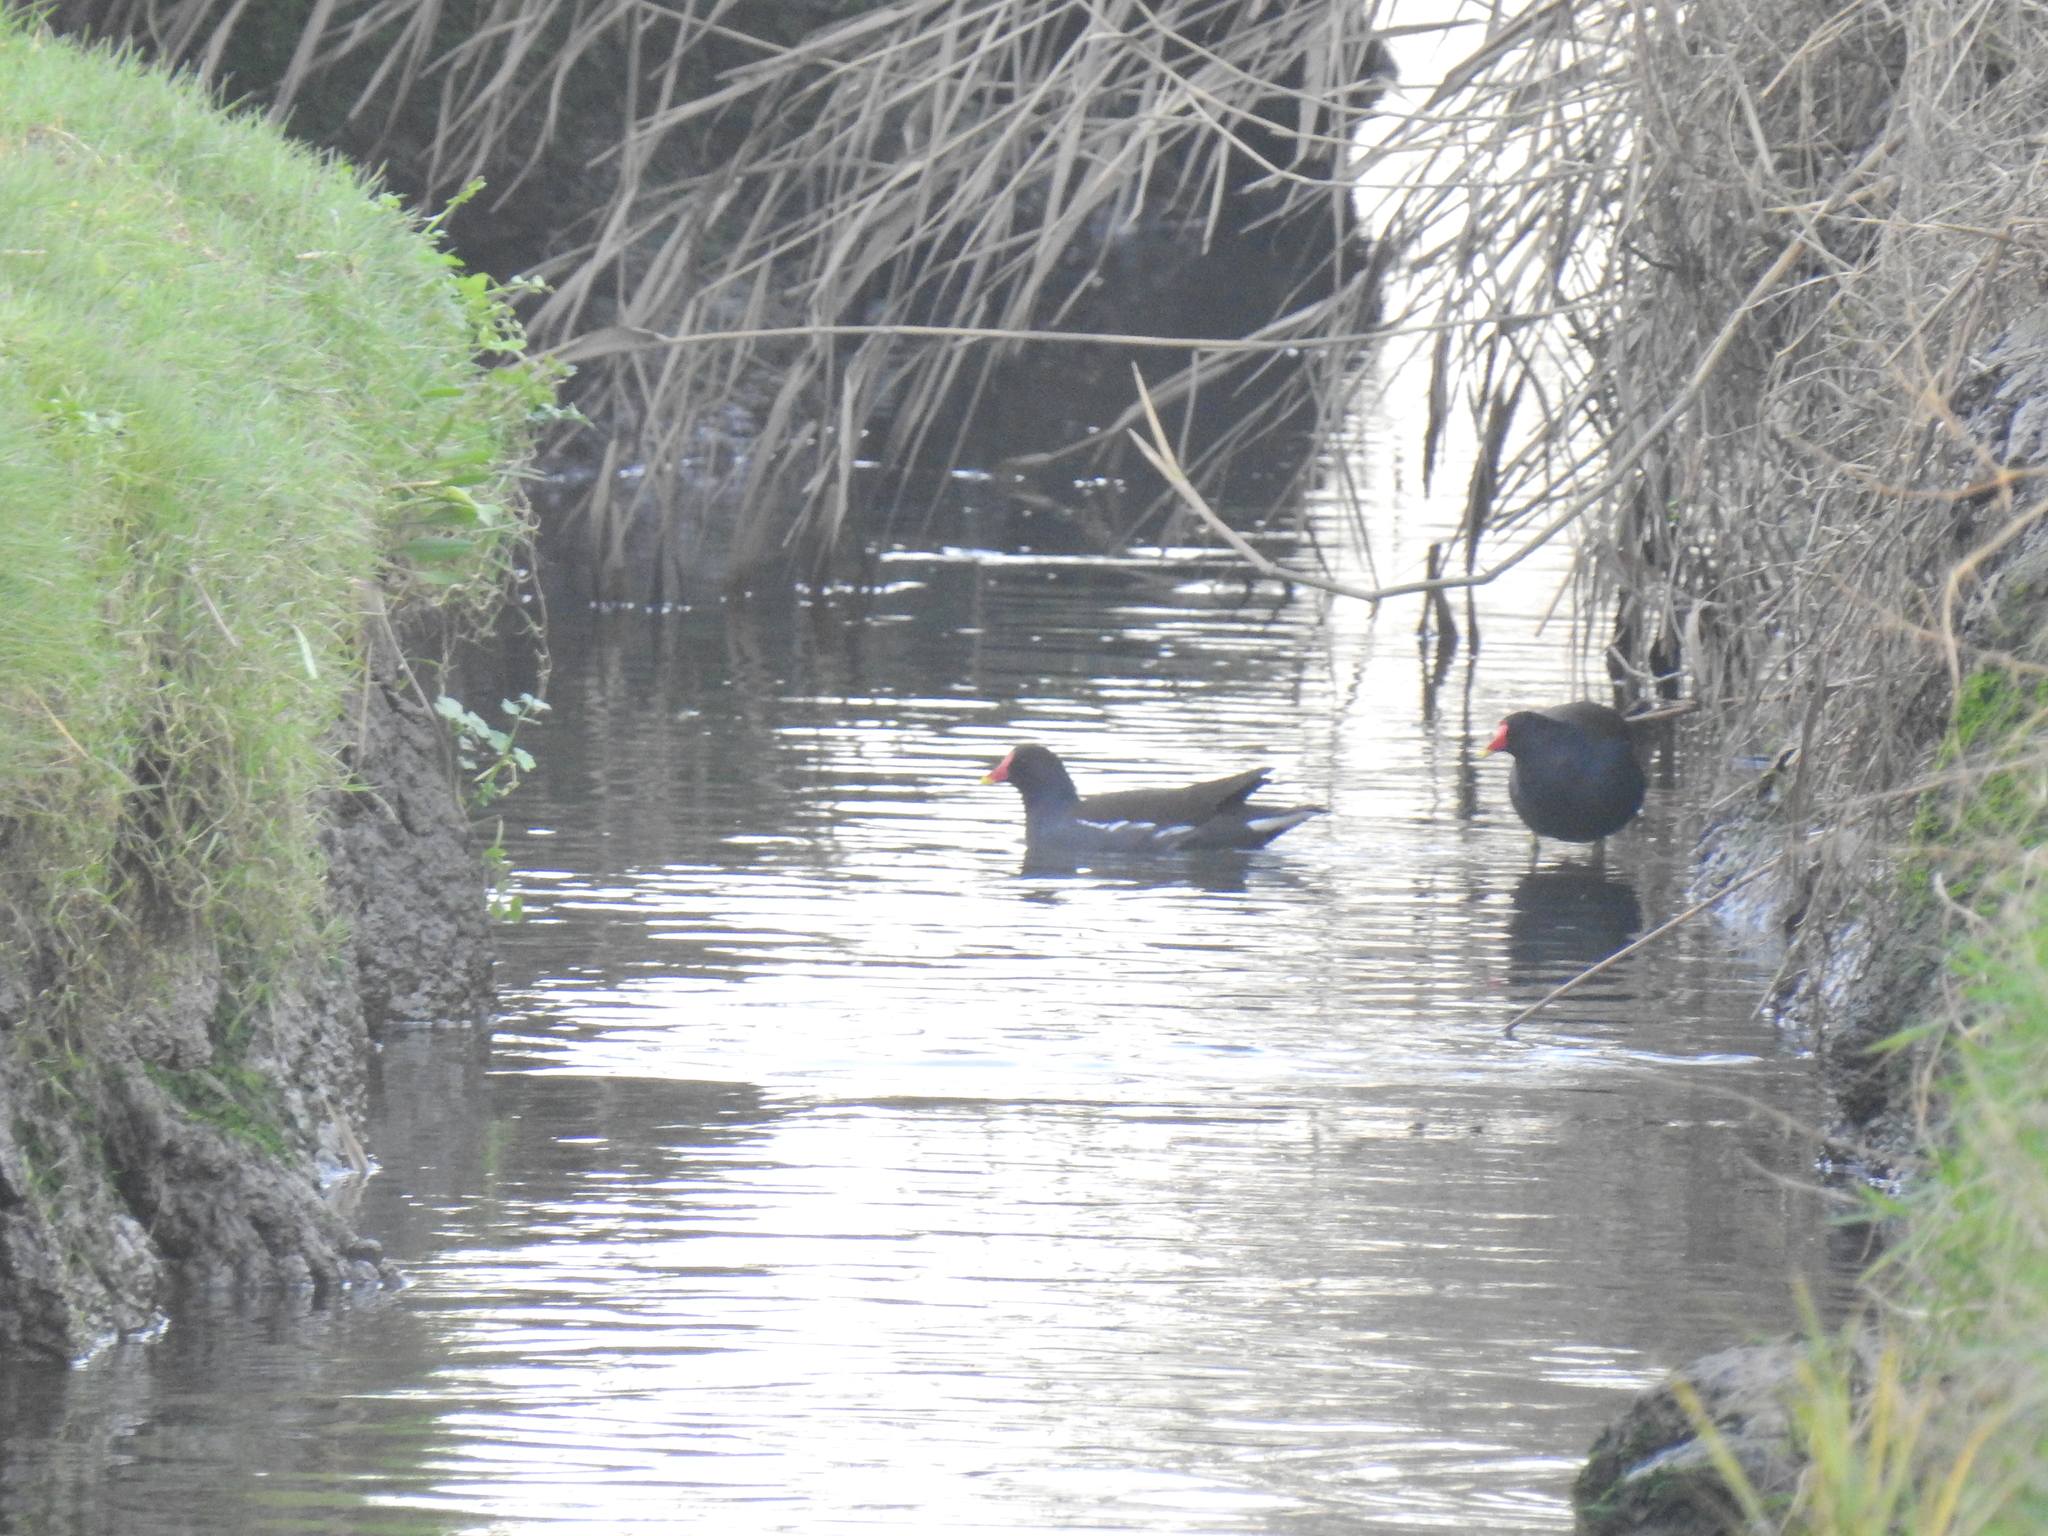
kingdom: Animalia
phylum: Chordata
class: Aves
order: Gruiformes
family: Rallidae
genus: Gallinula
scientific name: Gallinula chloropus
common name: Common moorhen
